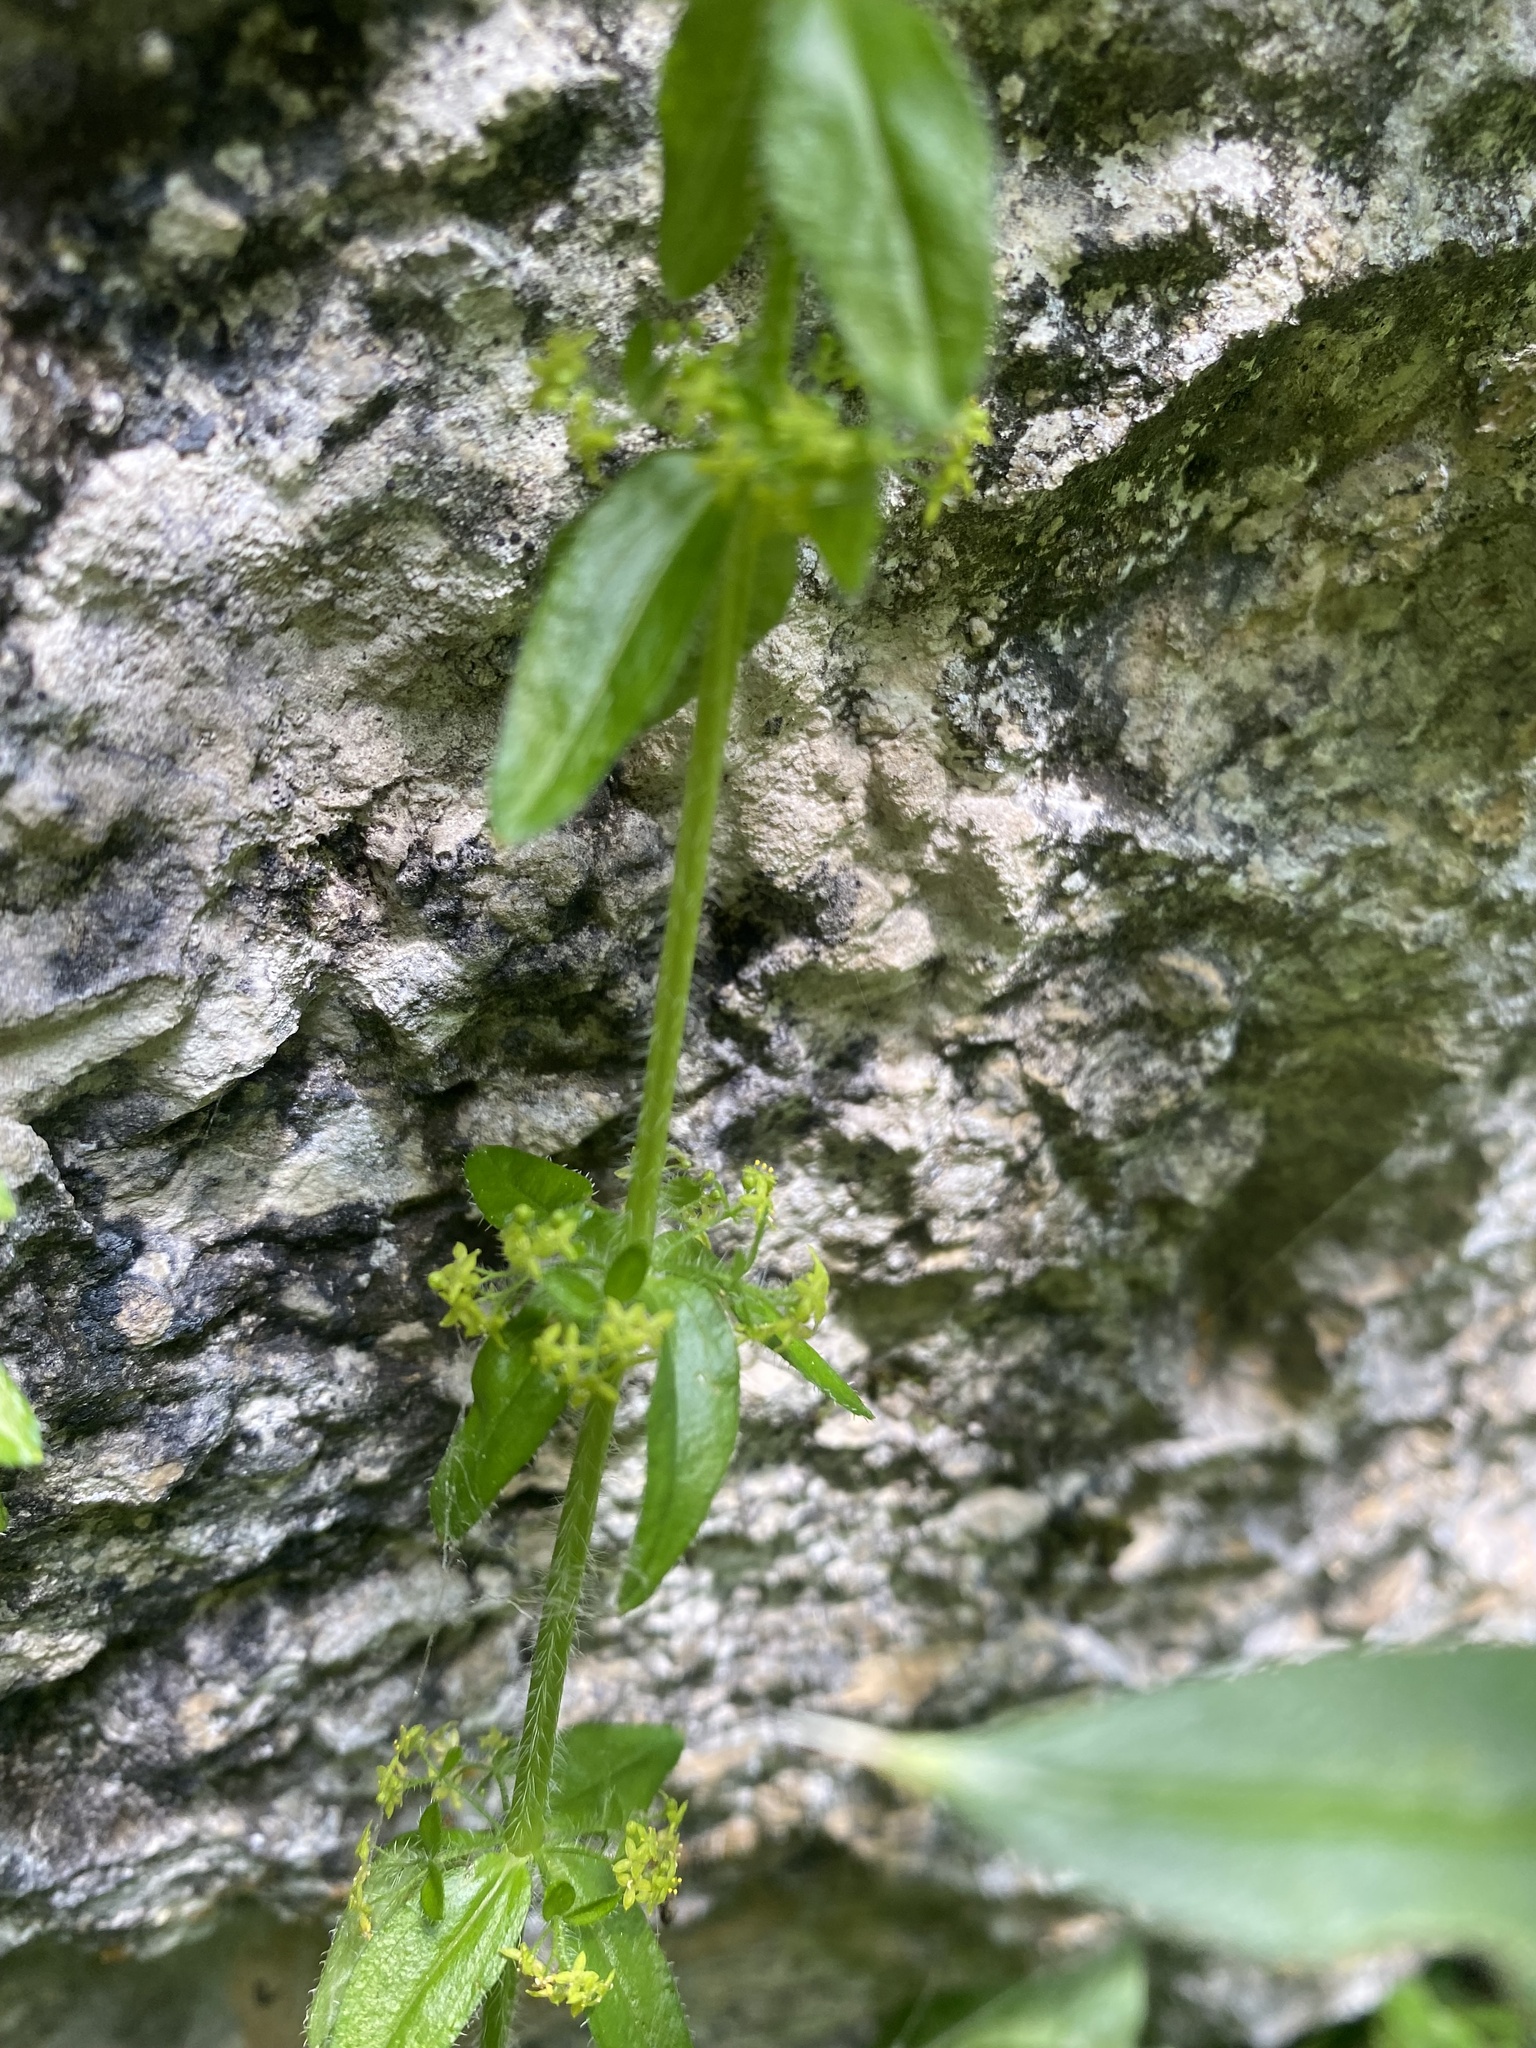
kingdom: Plantae
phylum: Tracheophyta
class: Magnoliopsida
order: Gentianales
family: Rubiaceae
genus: Cruciata
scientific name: Cruciata laevipes
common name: Crosswort
